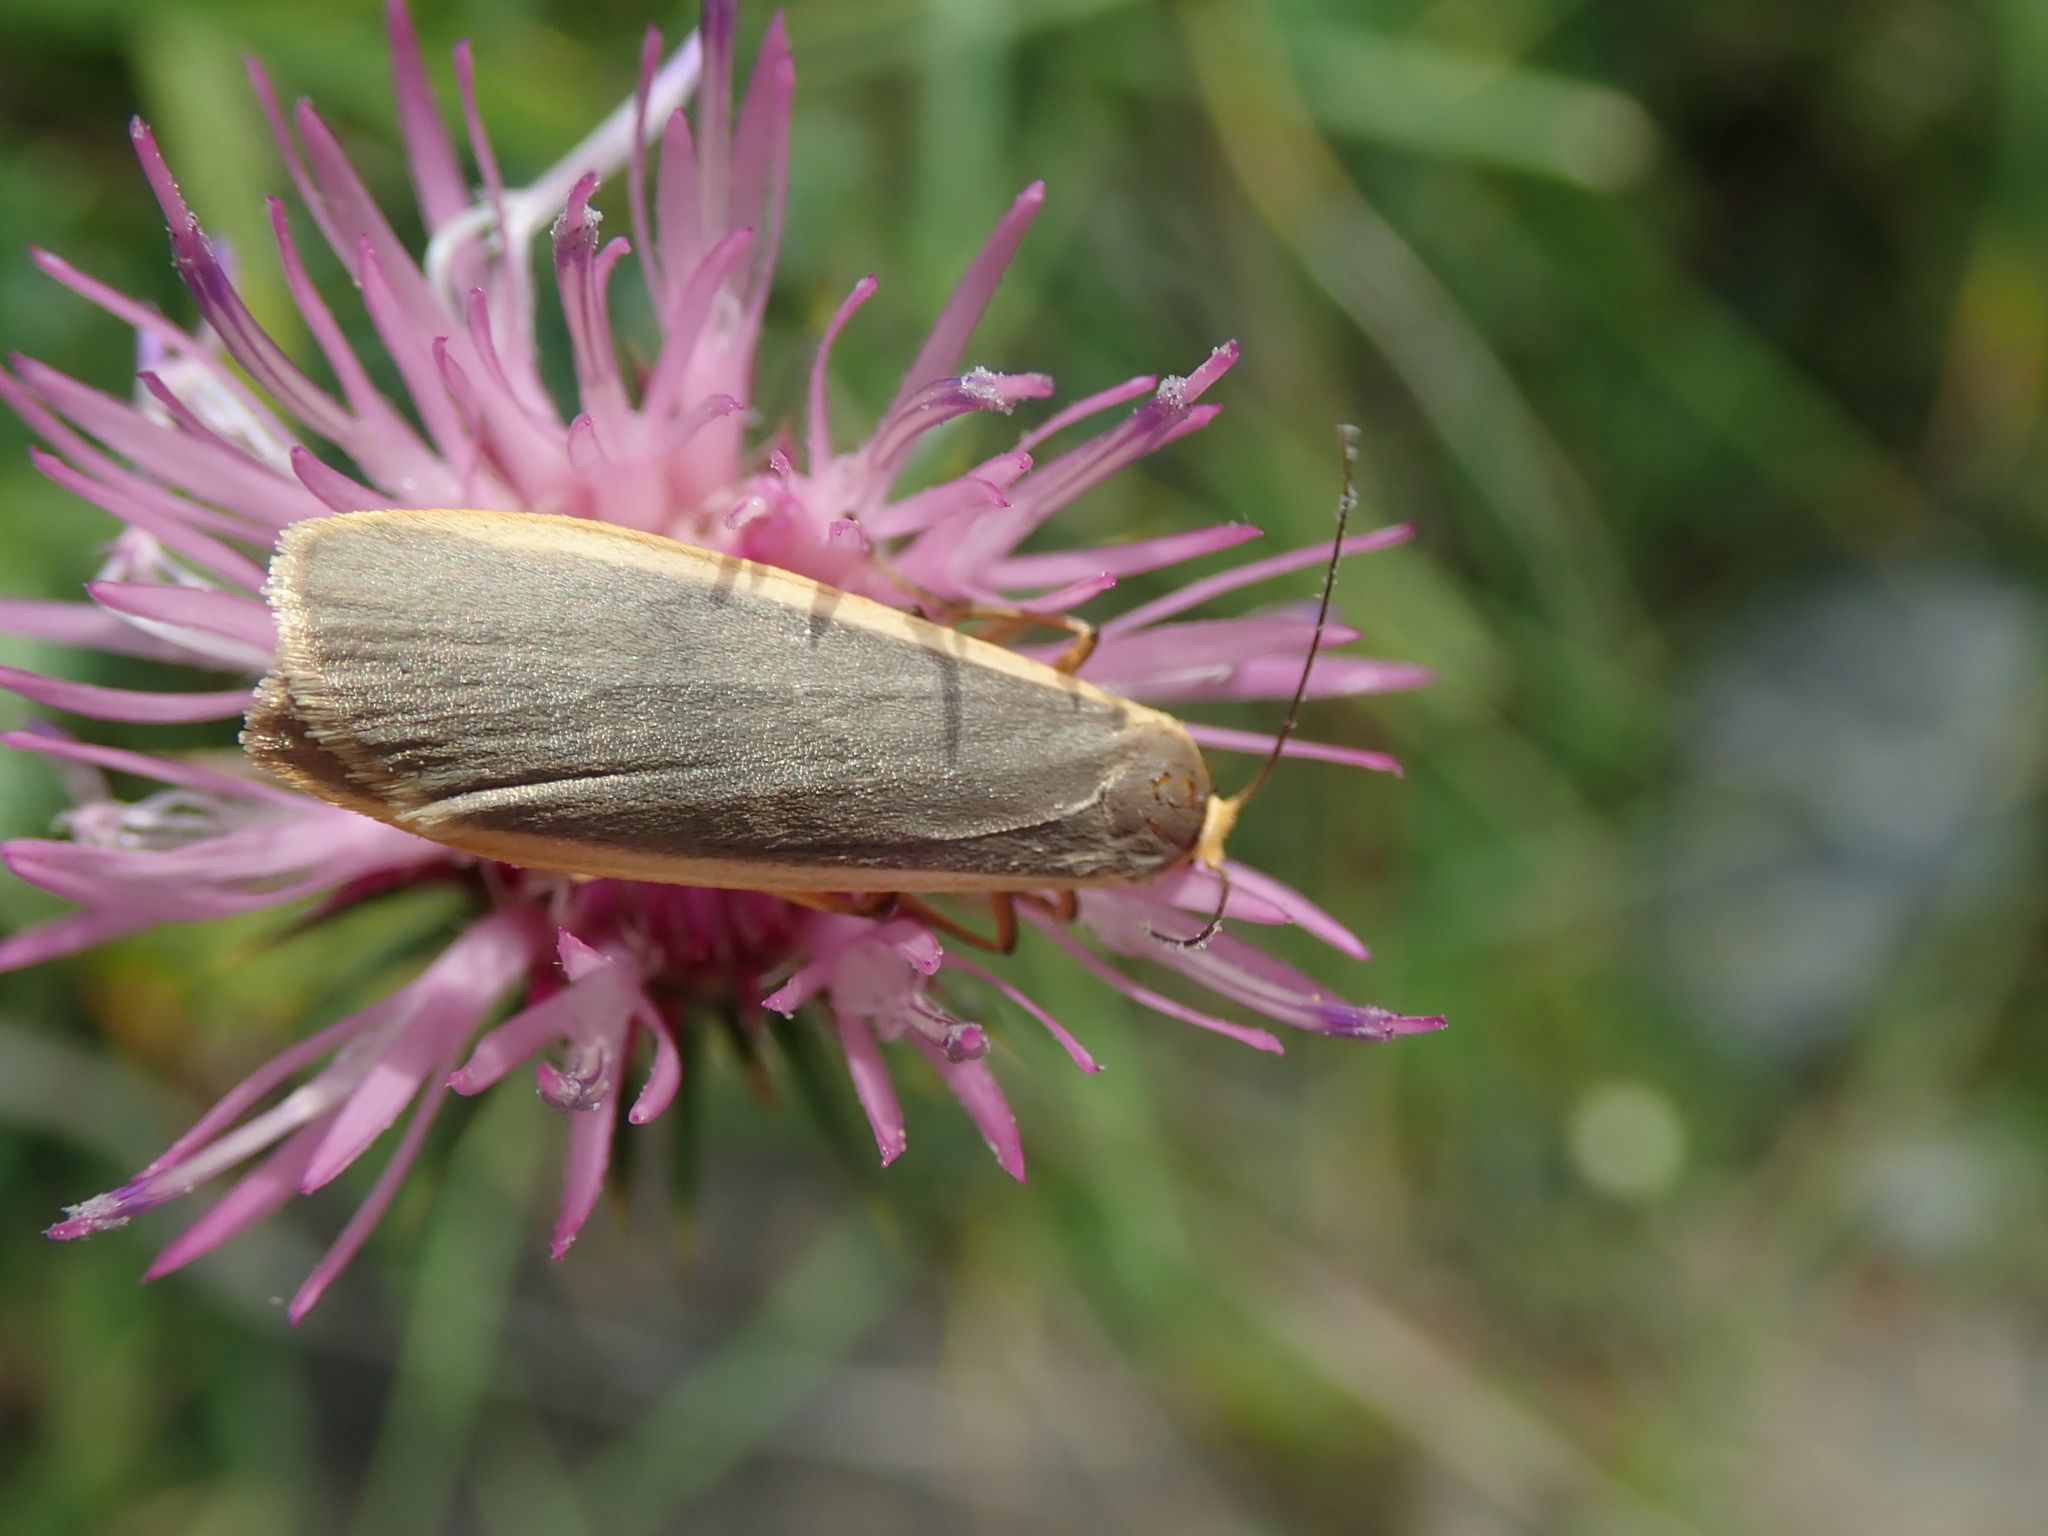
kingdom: Animalia
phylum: Arthropoda
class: Insecta
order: Lepidoptera
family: Erebidae
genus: Nyea
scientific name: Nyea lurideola
